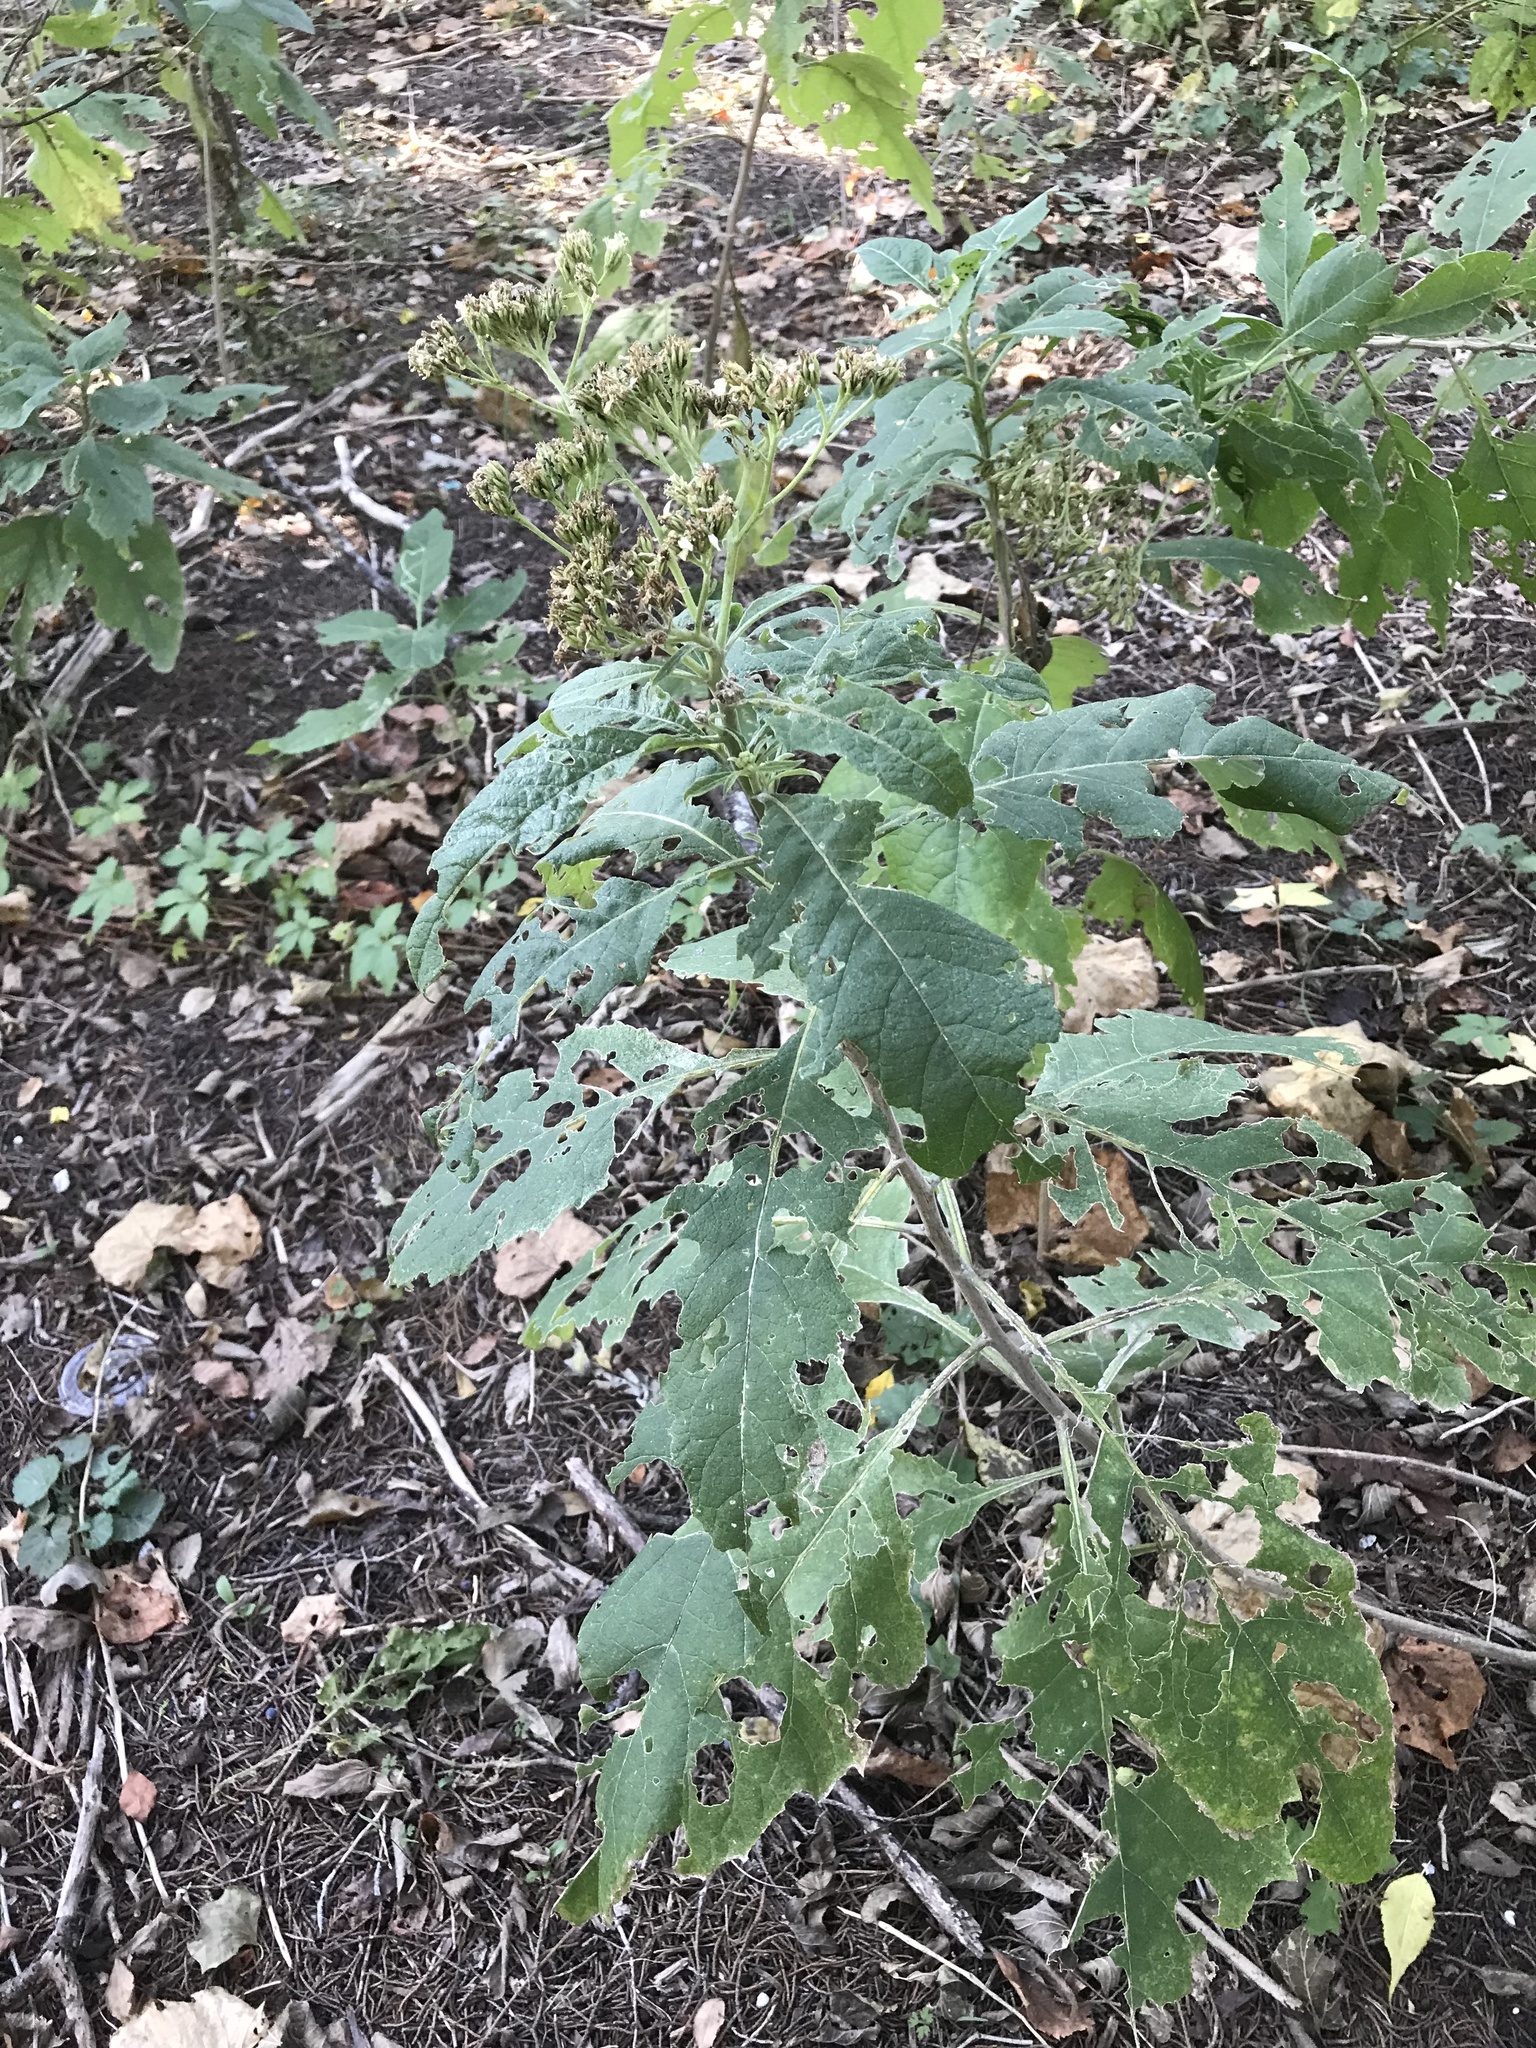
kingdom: Plantae
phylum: Tracheophyta
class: Magnoliopsida
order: Asterales
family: Asteraceae
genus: Verbesina
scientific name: Verbesina virginica
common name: Frostweed
